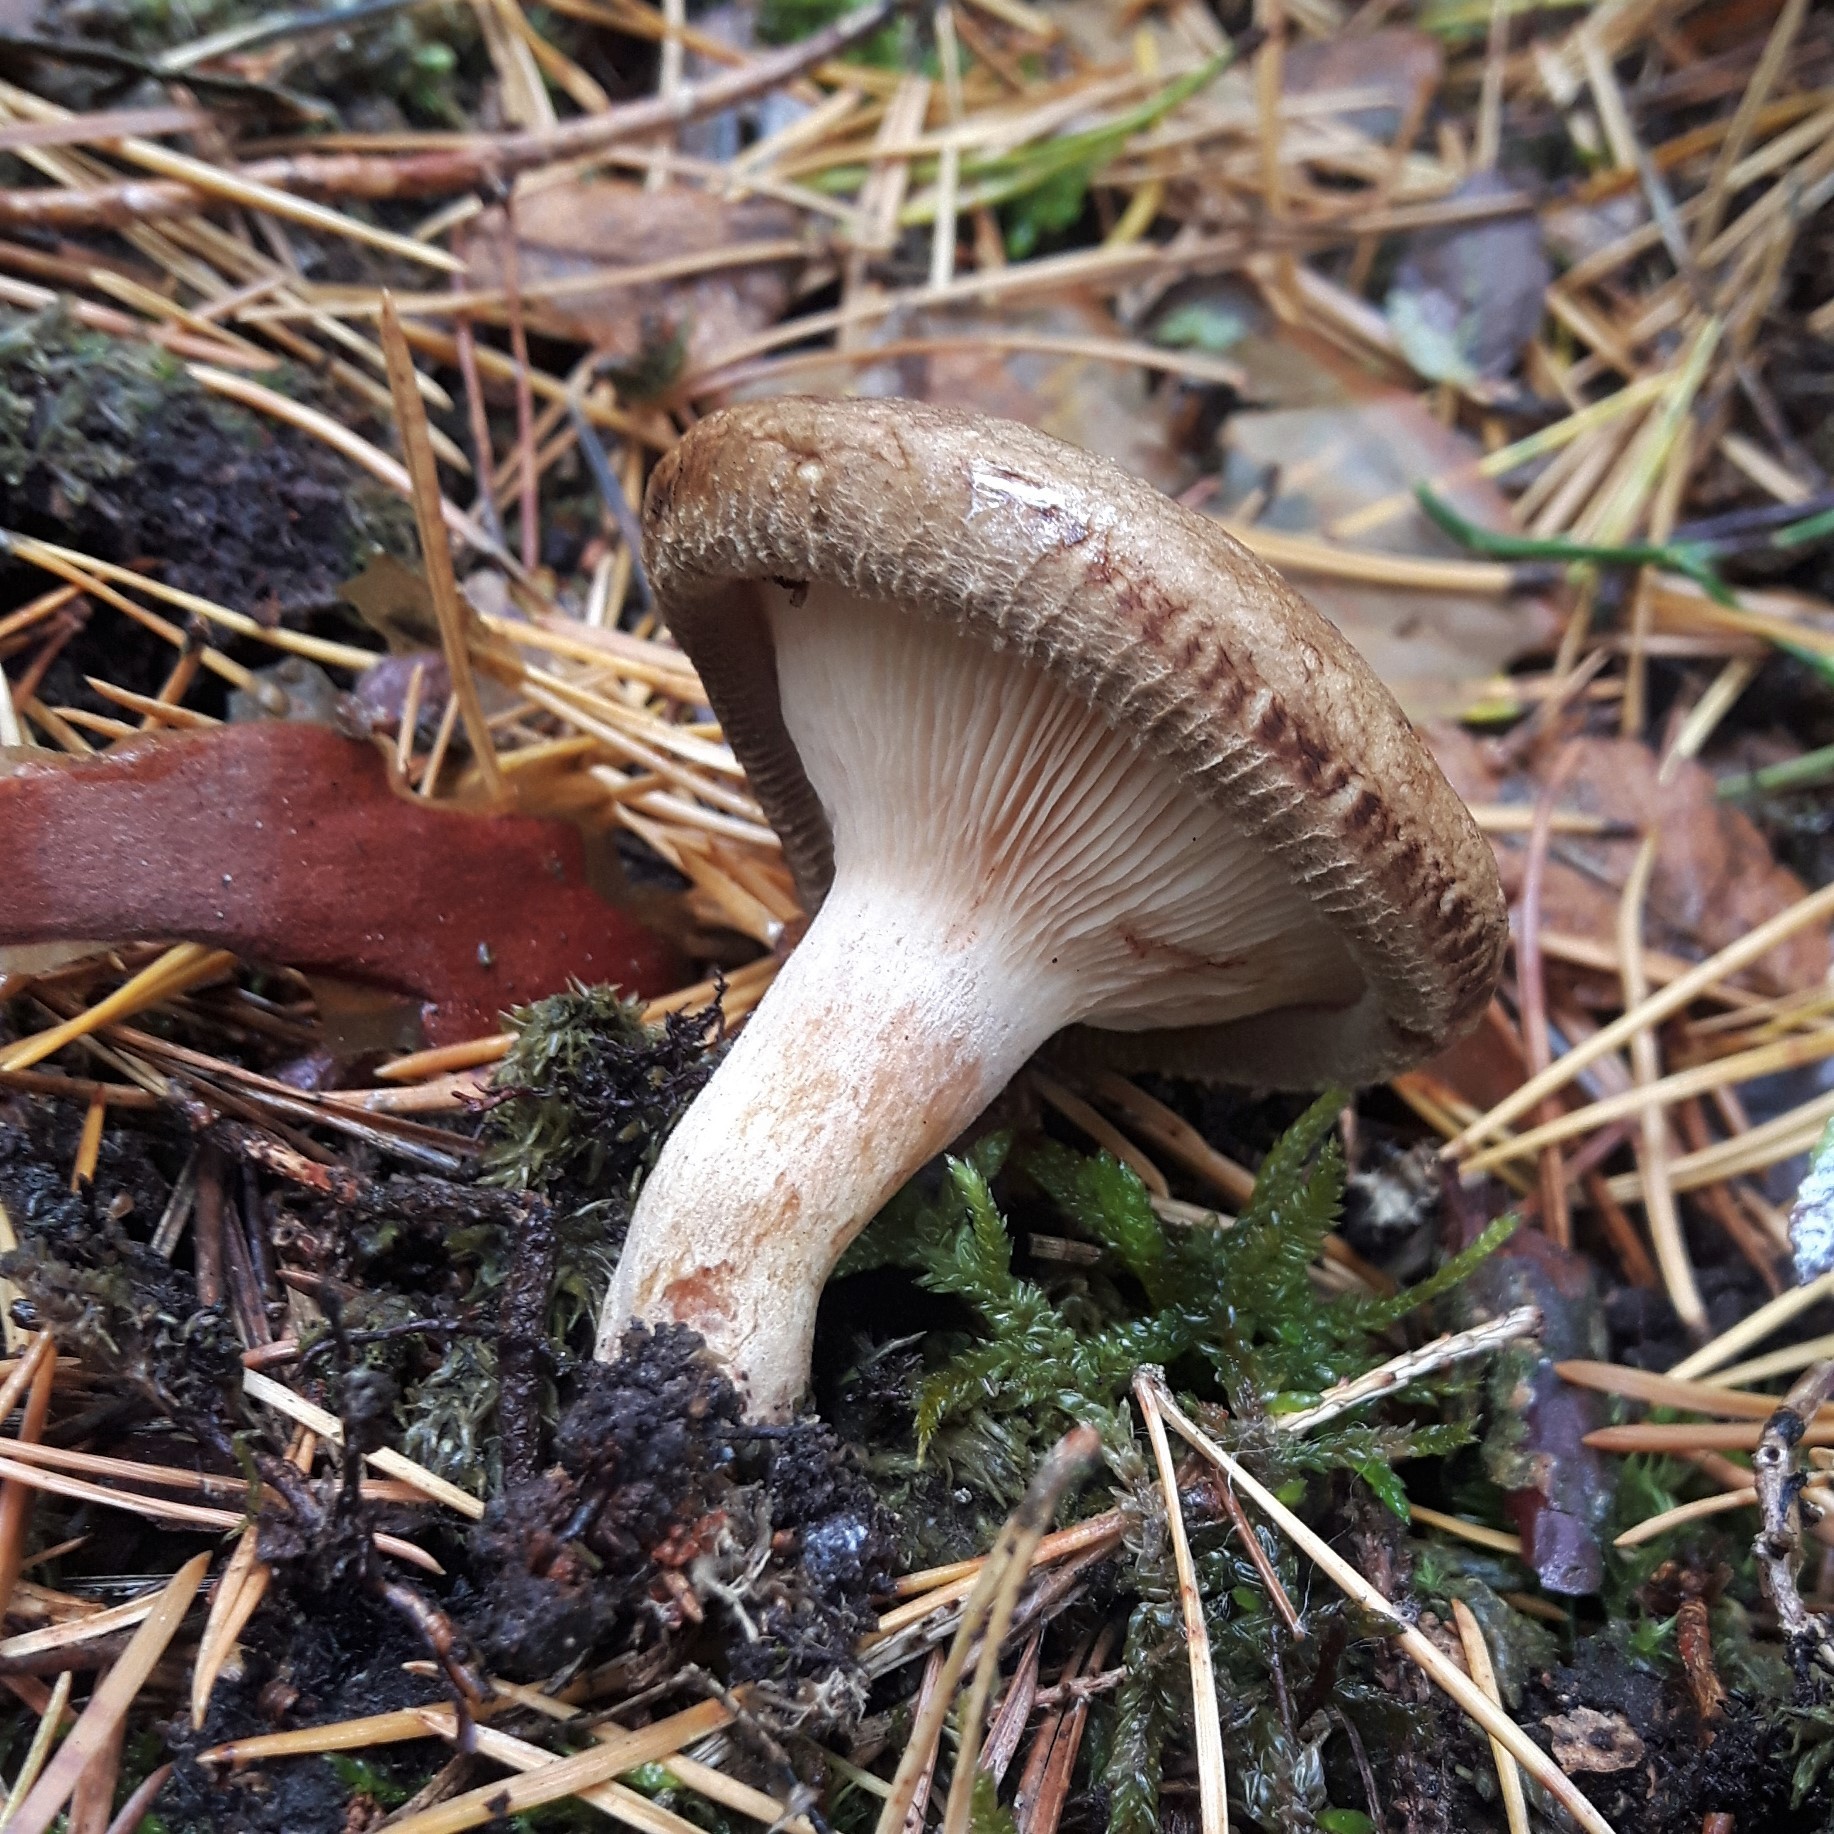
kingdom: Fungi
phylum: Basidiomycota
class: Agaricomycetes
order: Boletales
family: Paxillaceae
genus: Paxillus
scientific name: Paxillus involutus
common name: Brown roll rim
